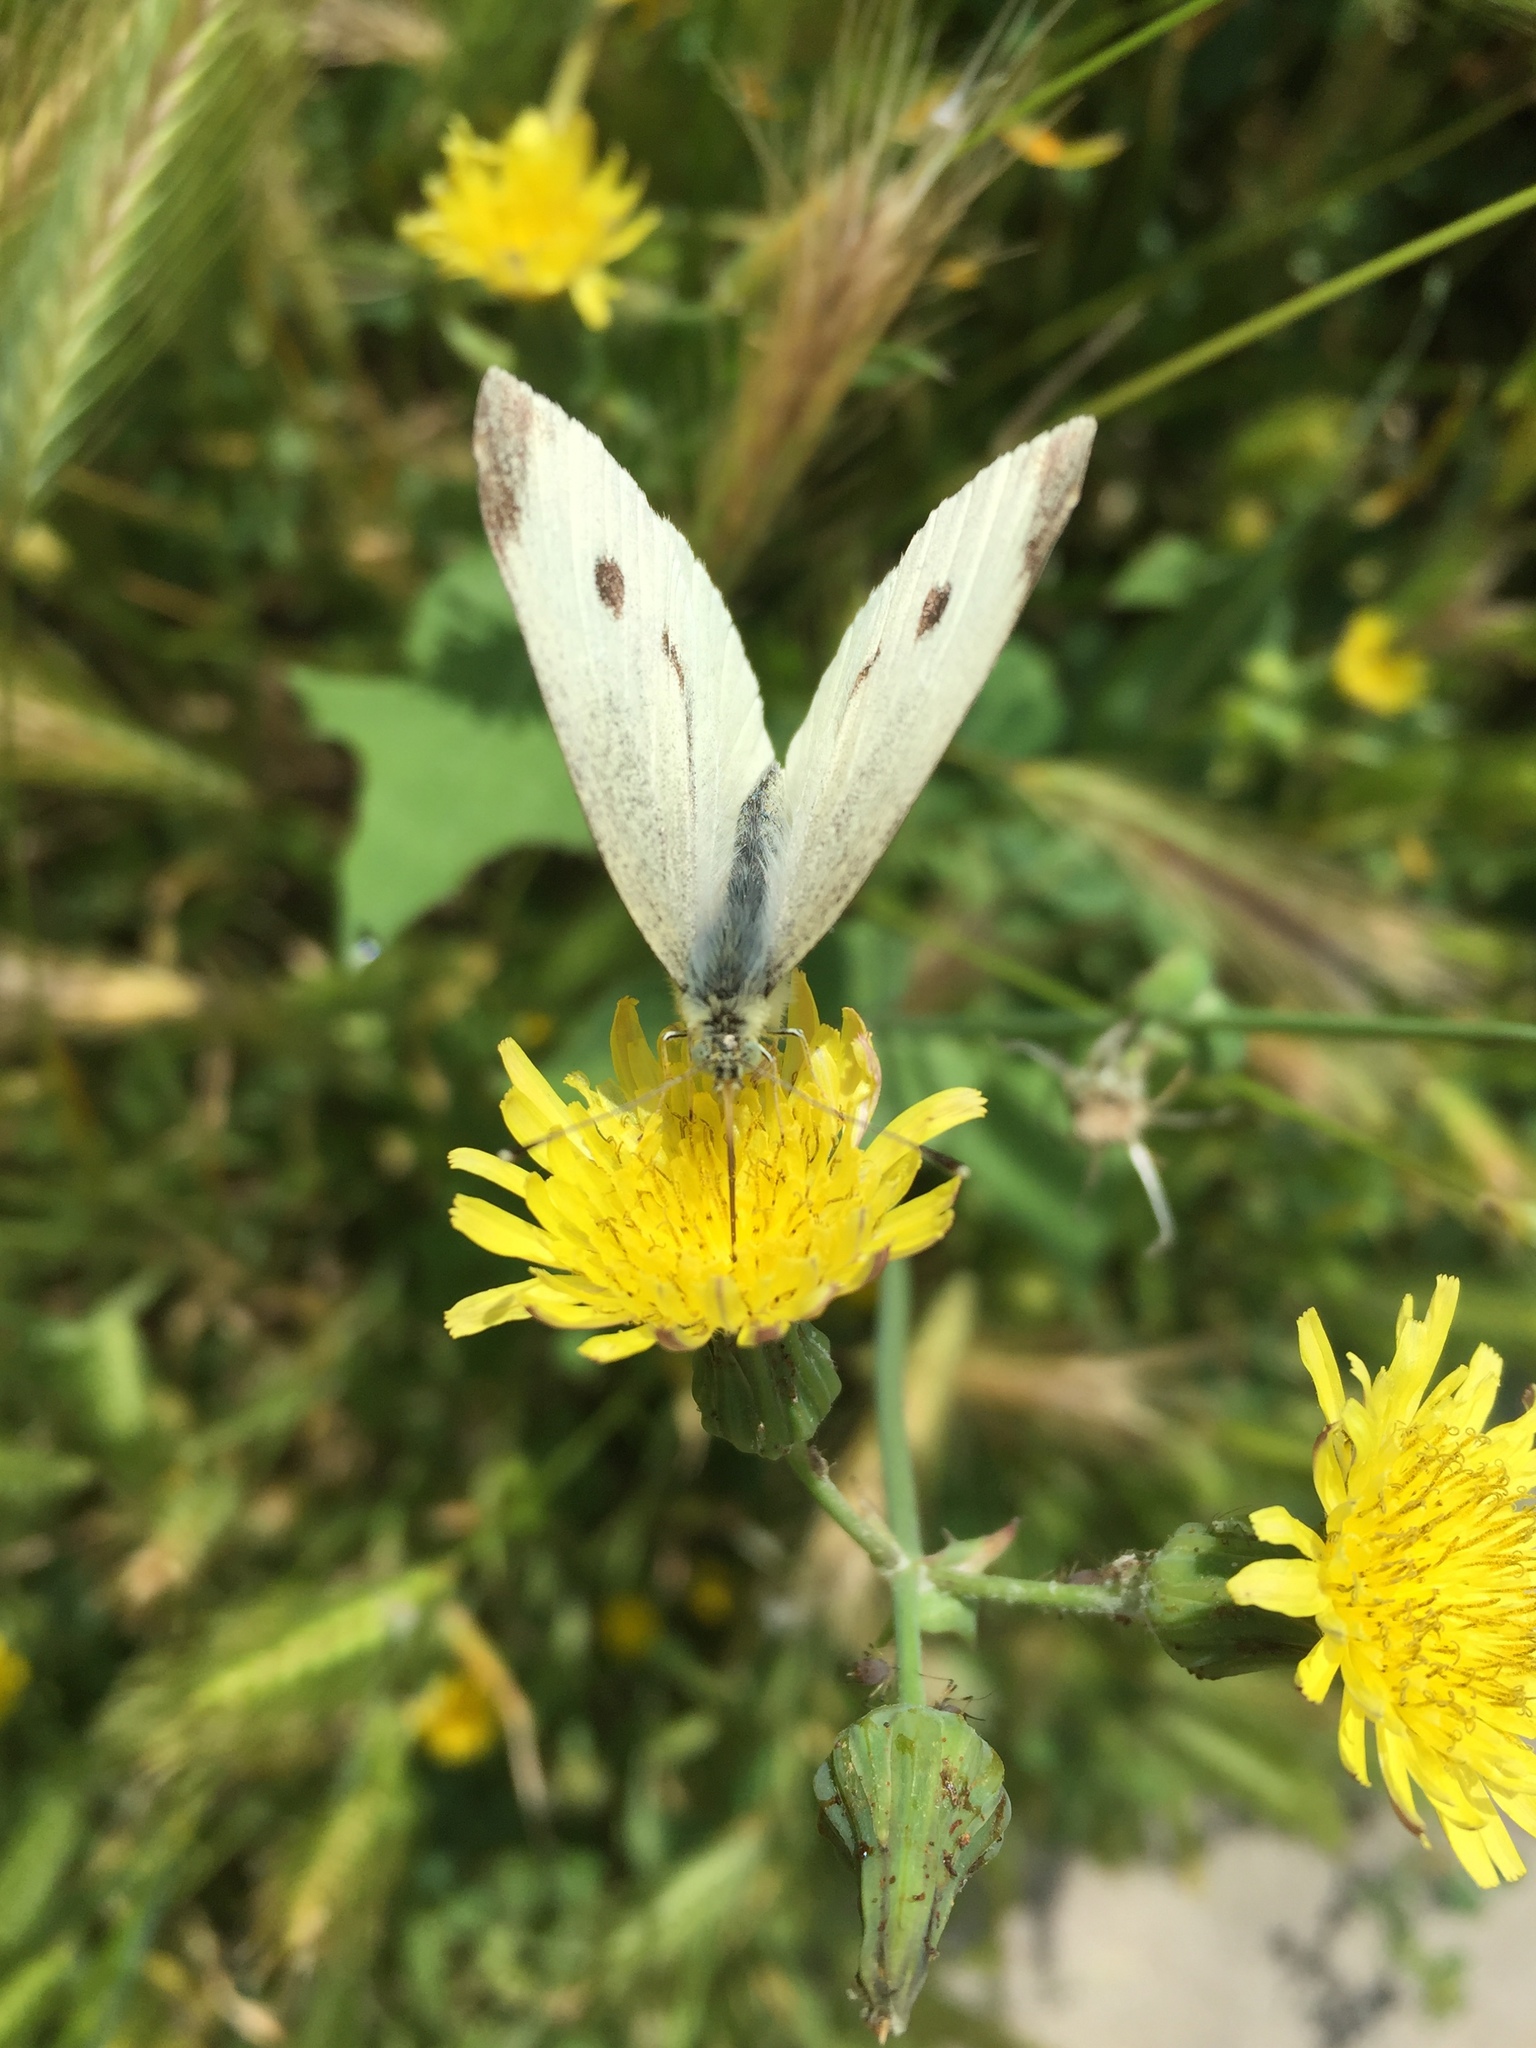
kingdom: Animalia
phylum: Arthropoda
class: Insecta
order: Lepidoptera
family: Pieridae
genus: Pieris
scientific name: Pieris rapae
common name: Small white
